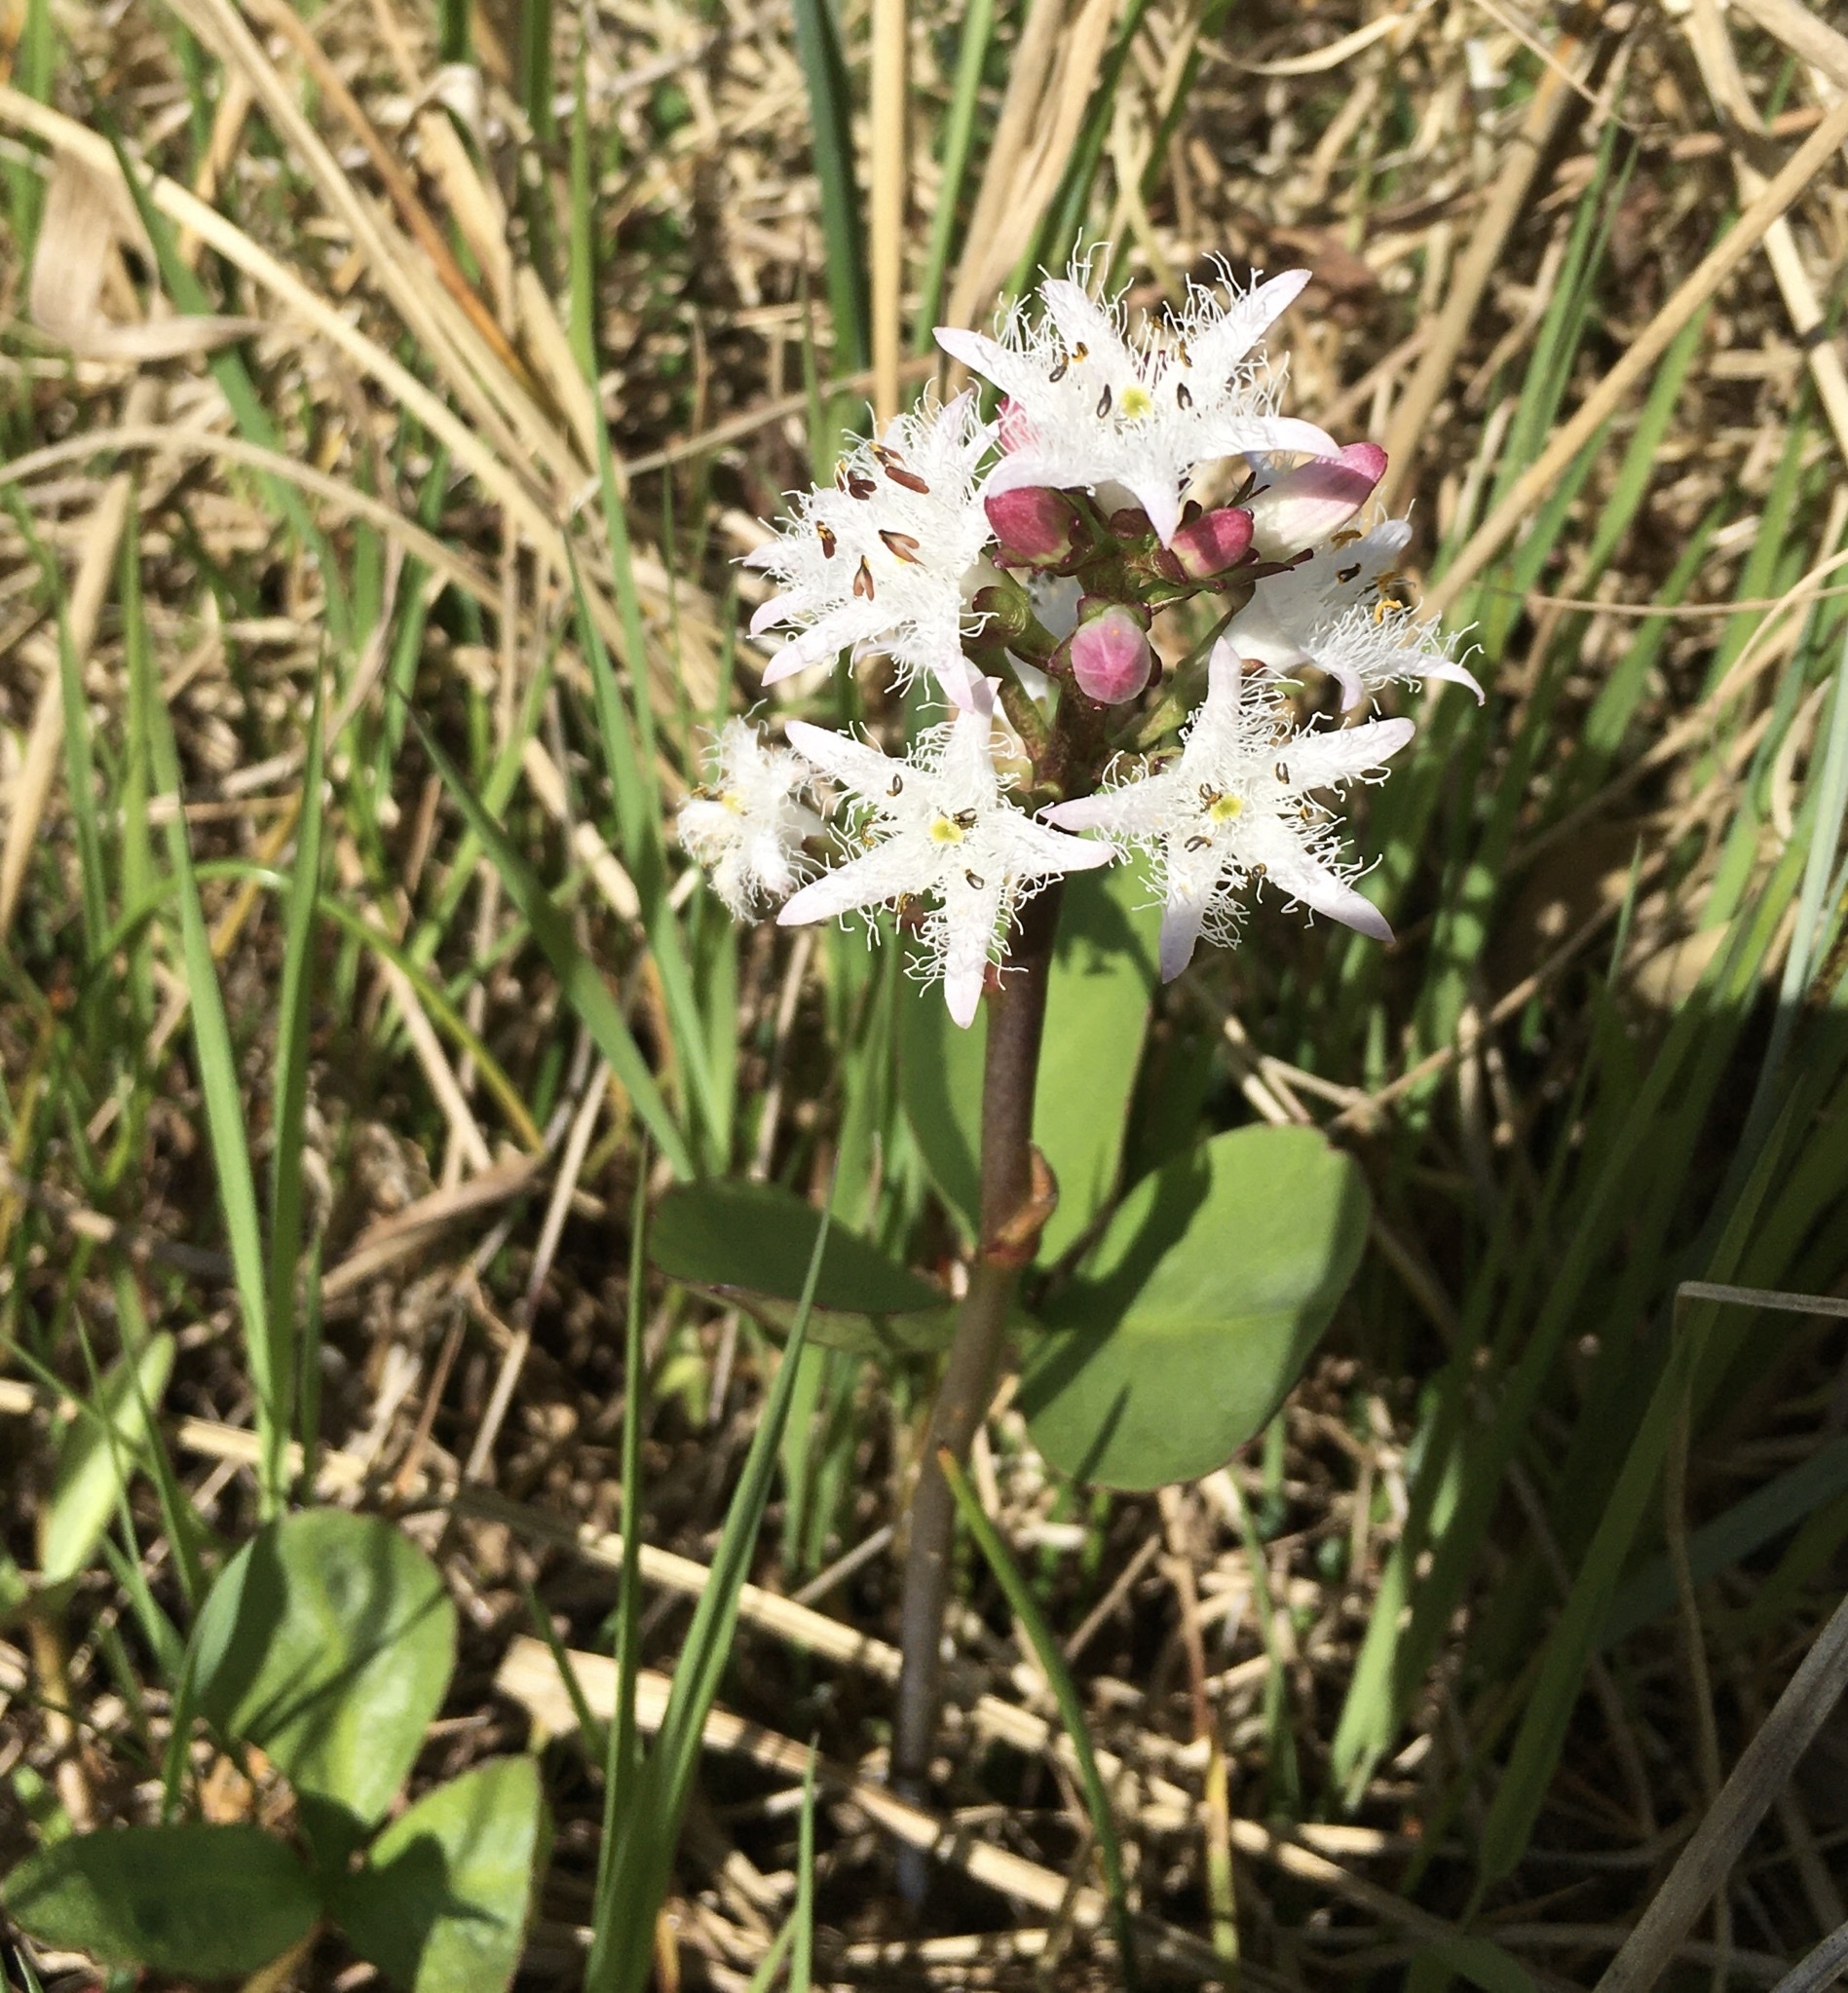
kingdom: Plantae
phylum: Tracheophyta
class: Magnoliopsida
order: Asterales
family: Menyanthaceae
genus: Menyanthes
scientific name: Menyanthes trifoliata
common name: Bogbean
